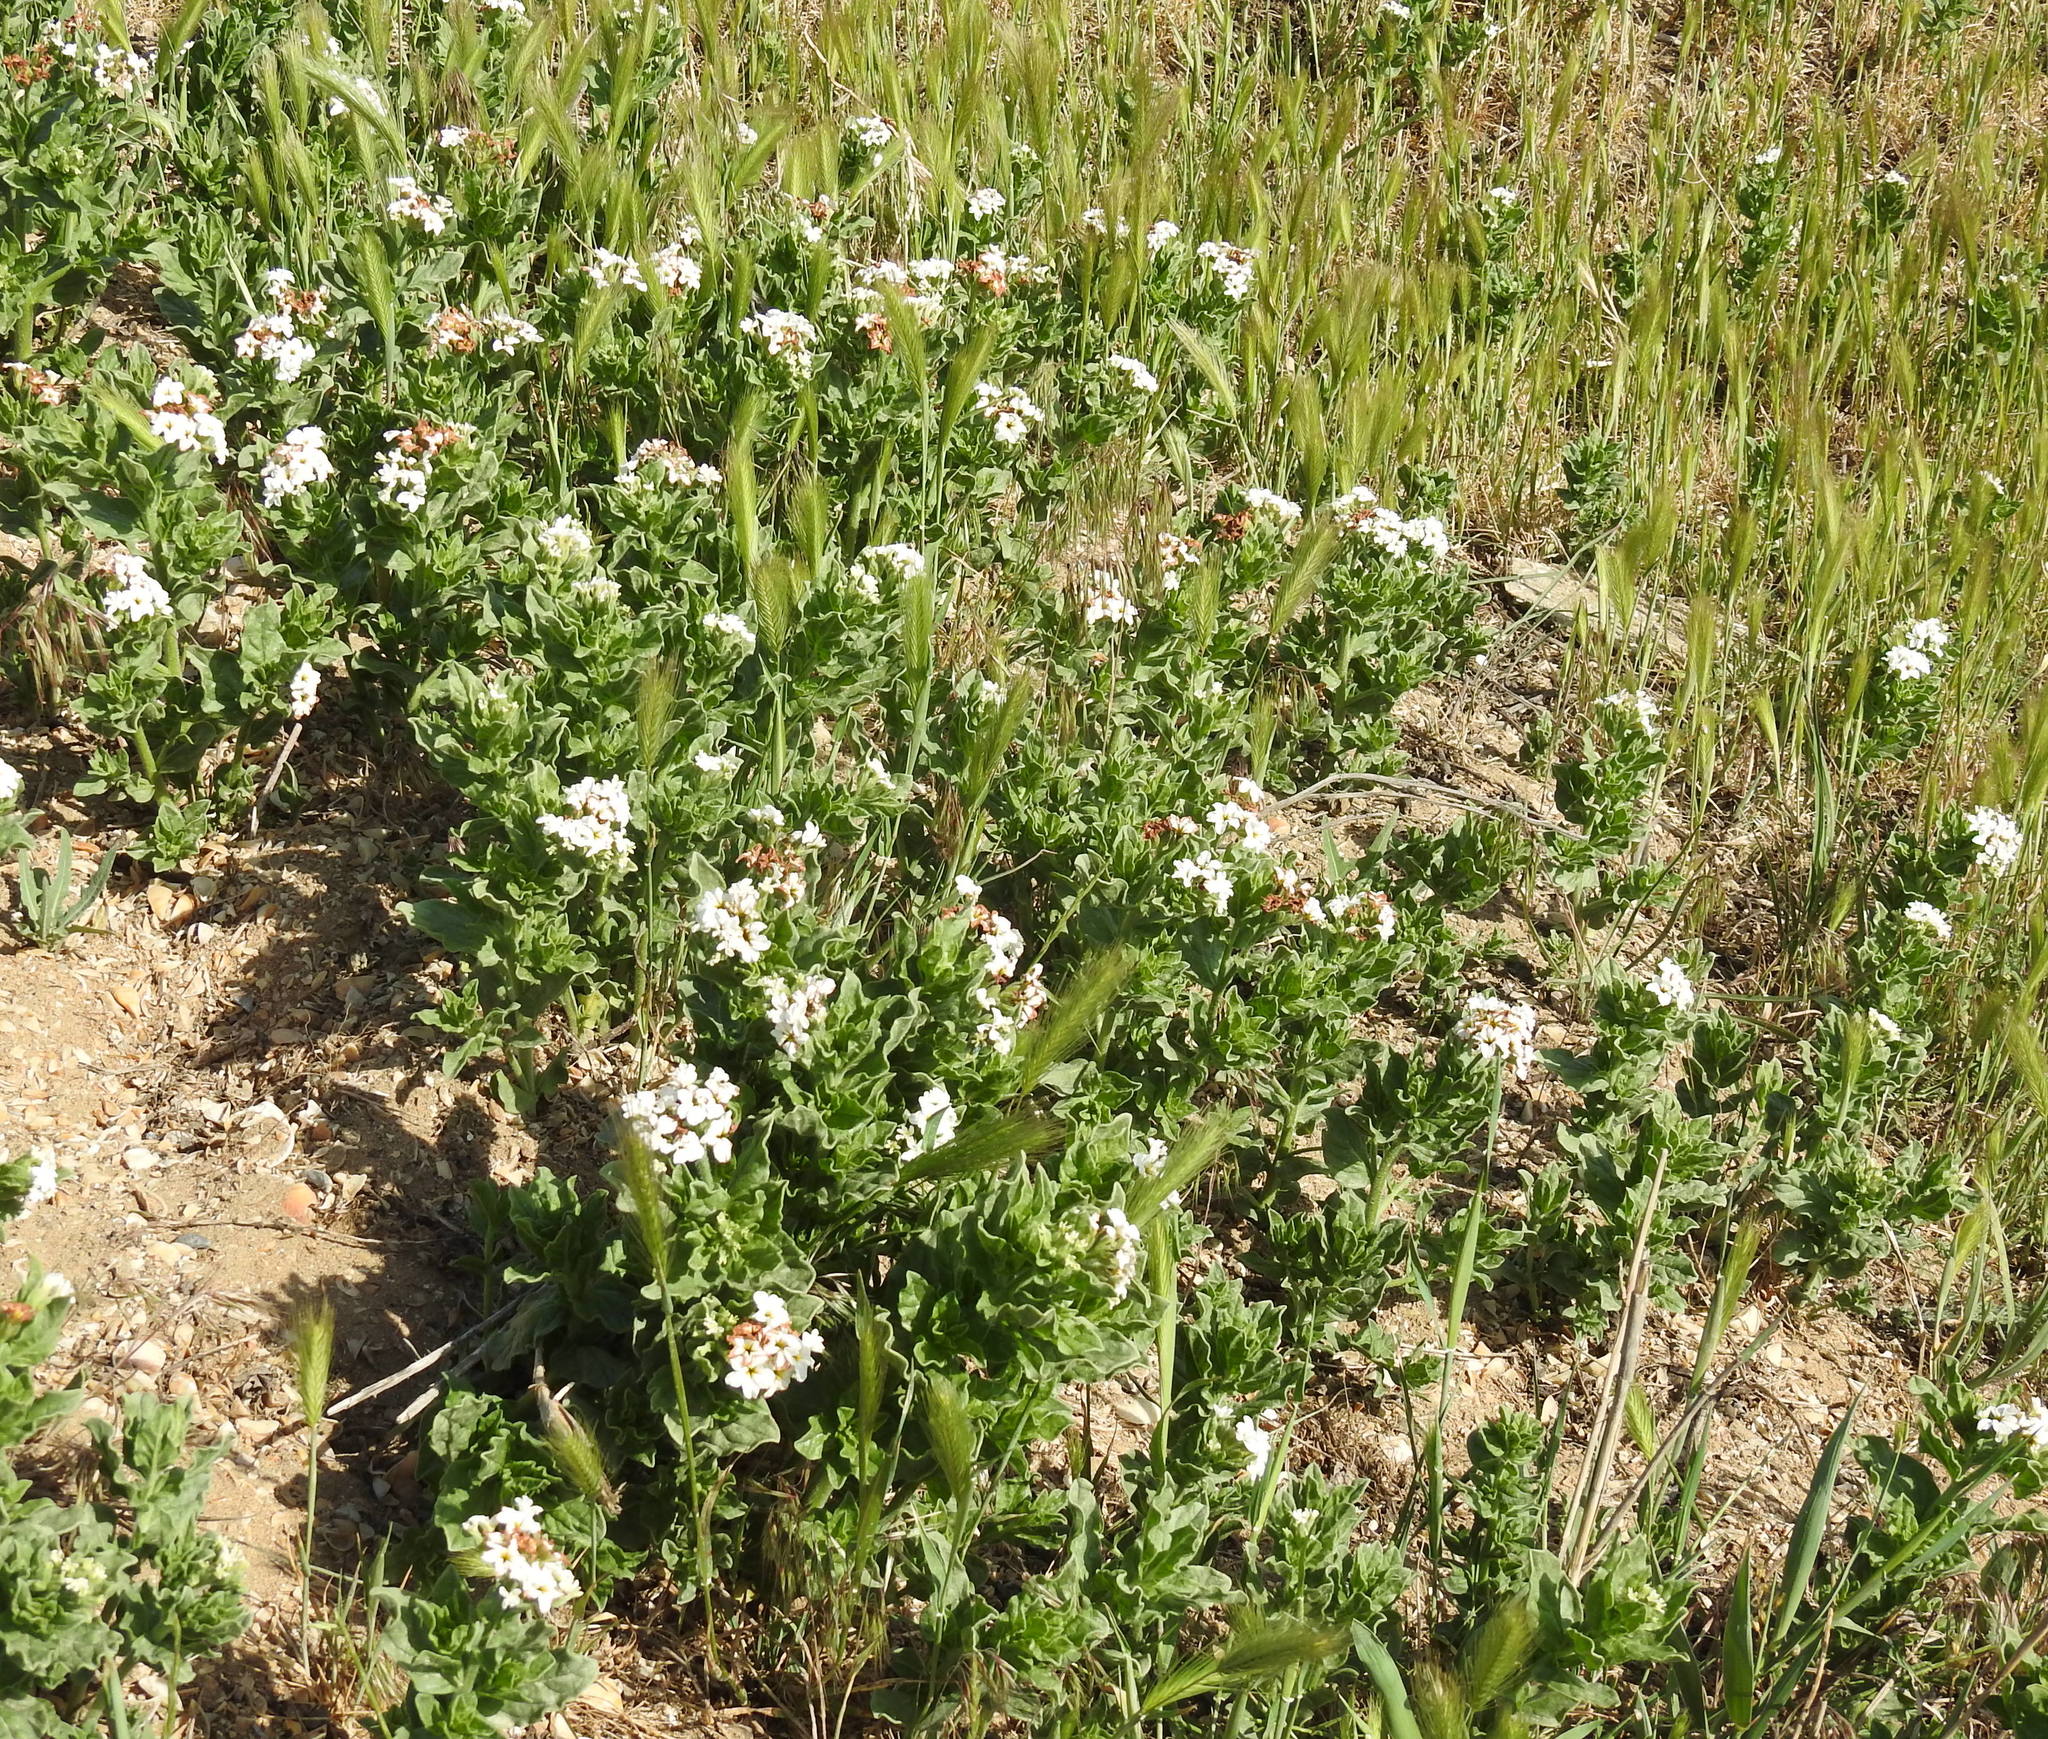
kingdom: Plantae
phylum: Tracheophyta
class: Magnoliopsida
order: Boraginales
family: Heliotropiaceae
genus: Tournefortia
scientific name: Tournefortia sibirica
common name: Siberian sea rosemary
